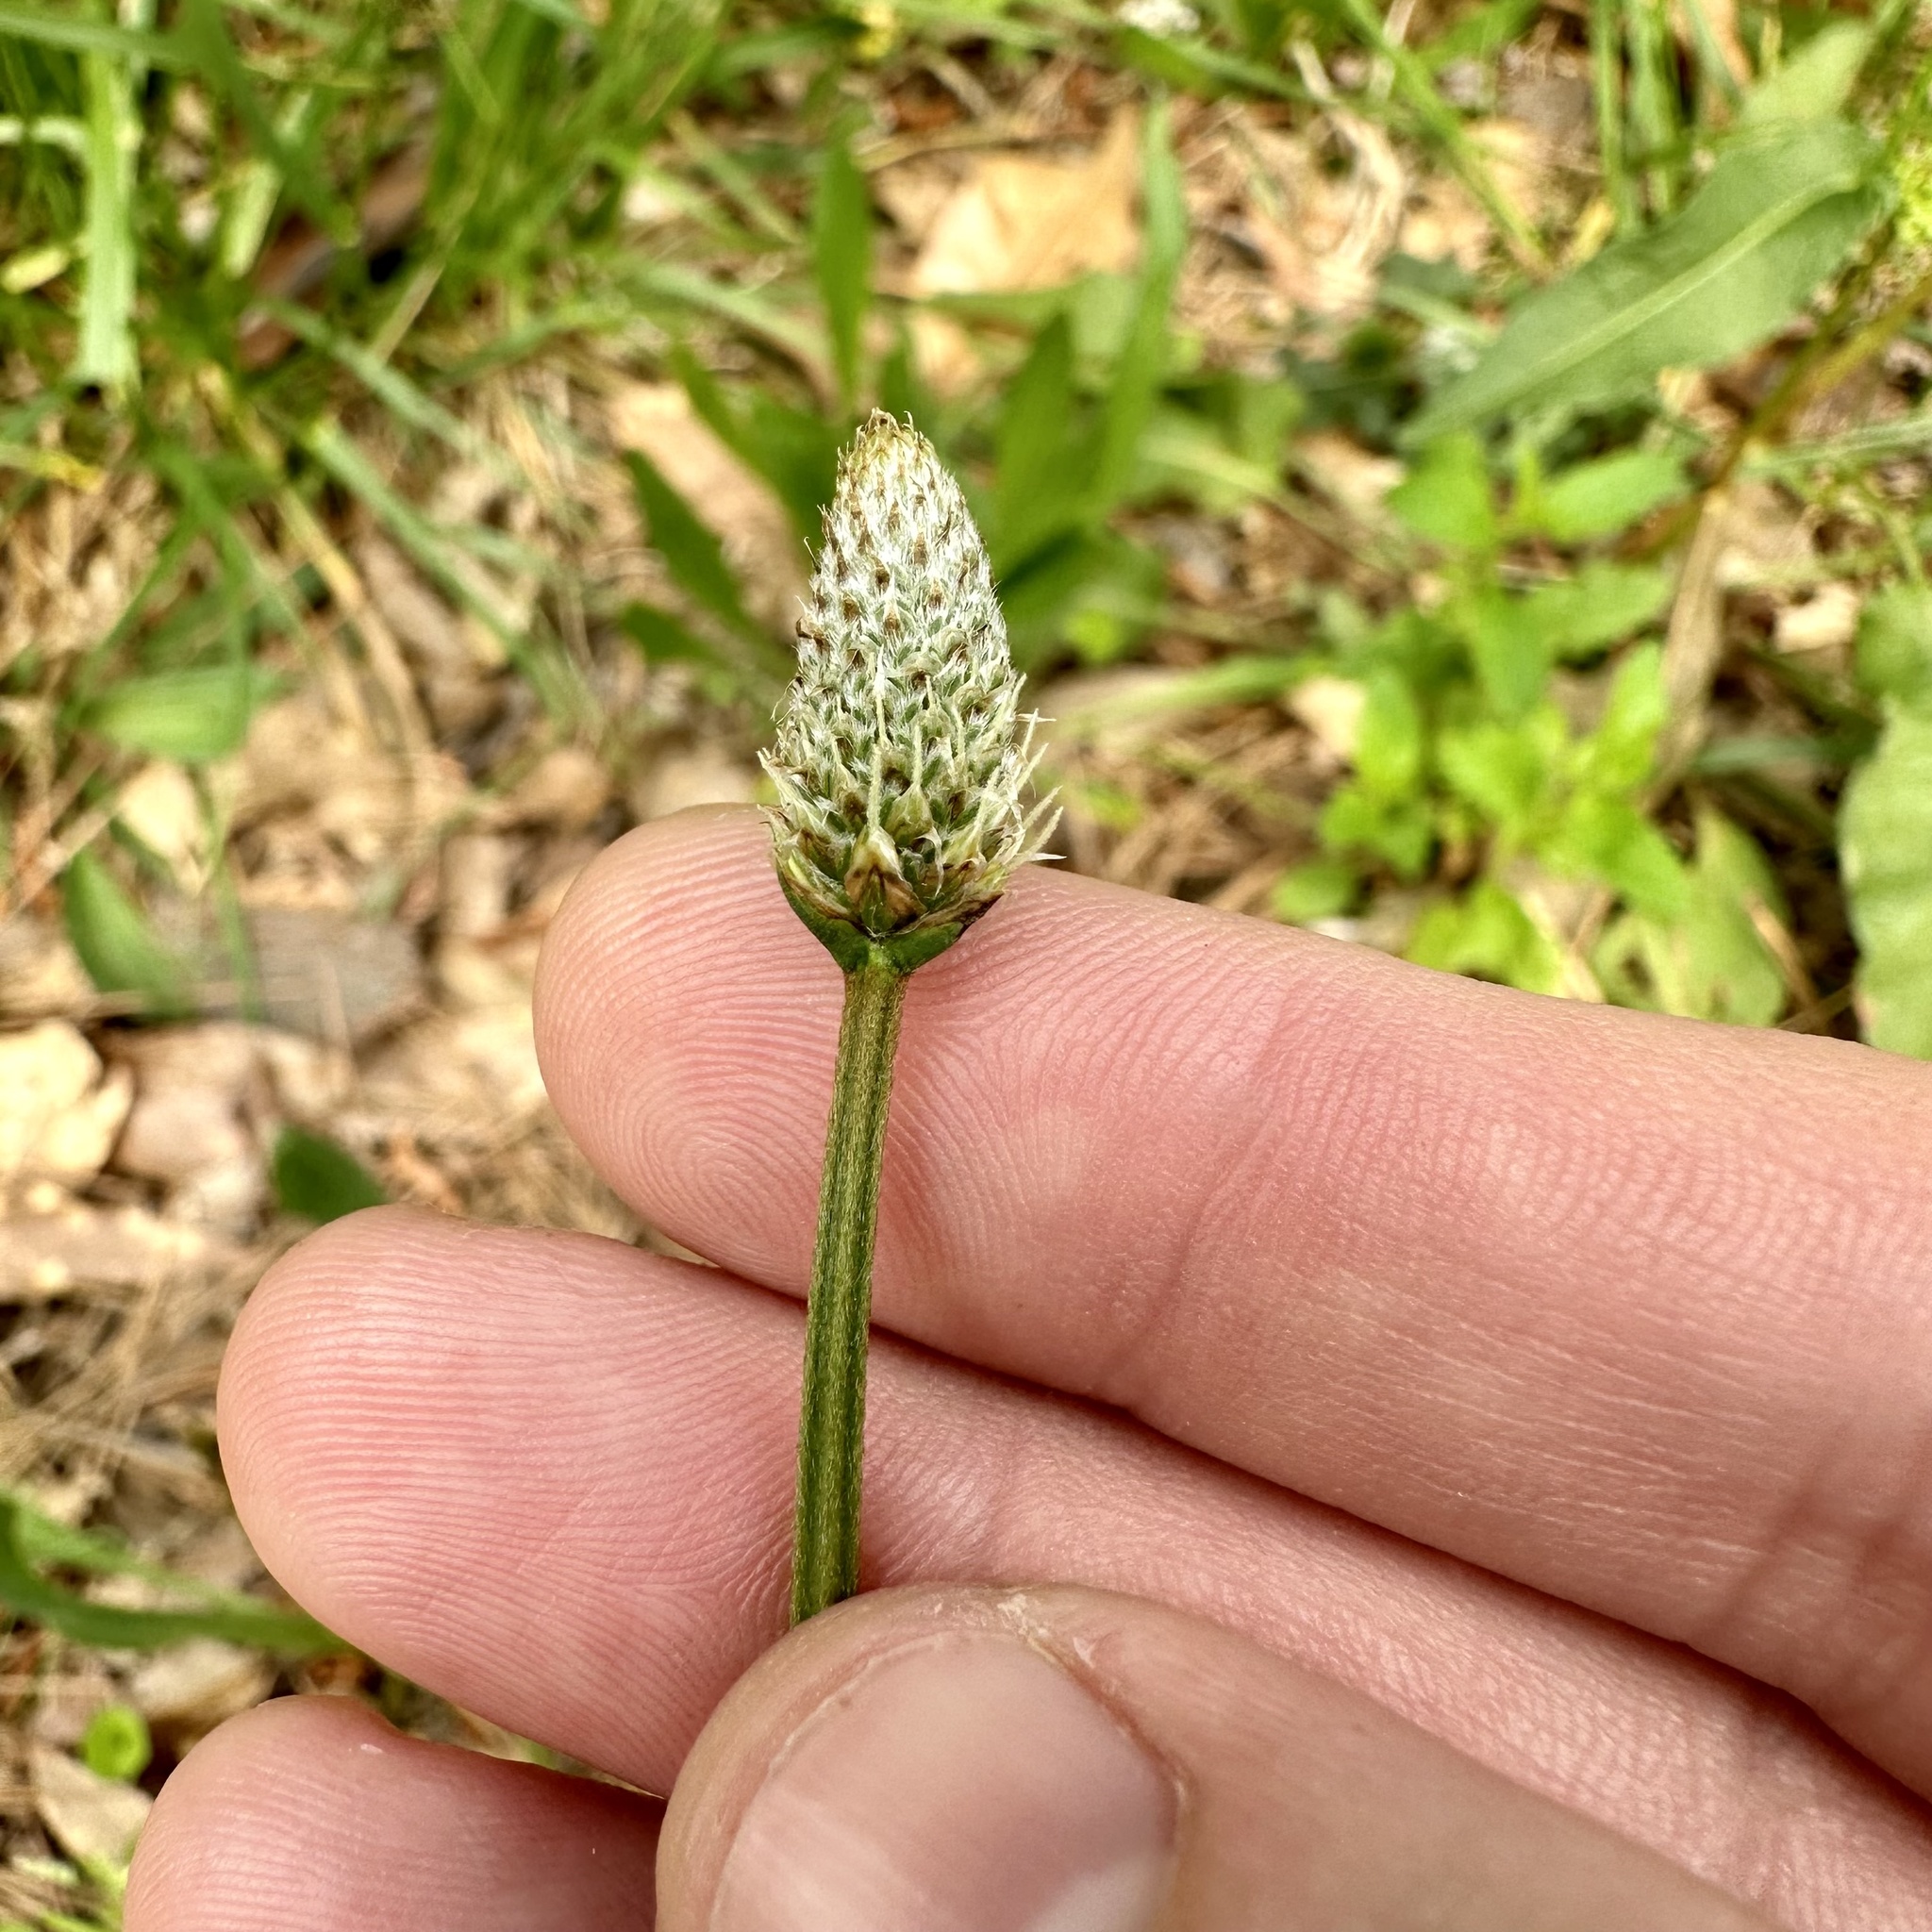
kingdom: Plantae
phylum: Tracheophyta
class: Magnoliopsida
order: Lamiales
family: Plantaginaceae
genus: Plantago
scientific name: Plantago lanceolata
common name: Ribwort plantain
